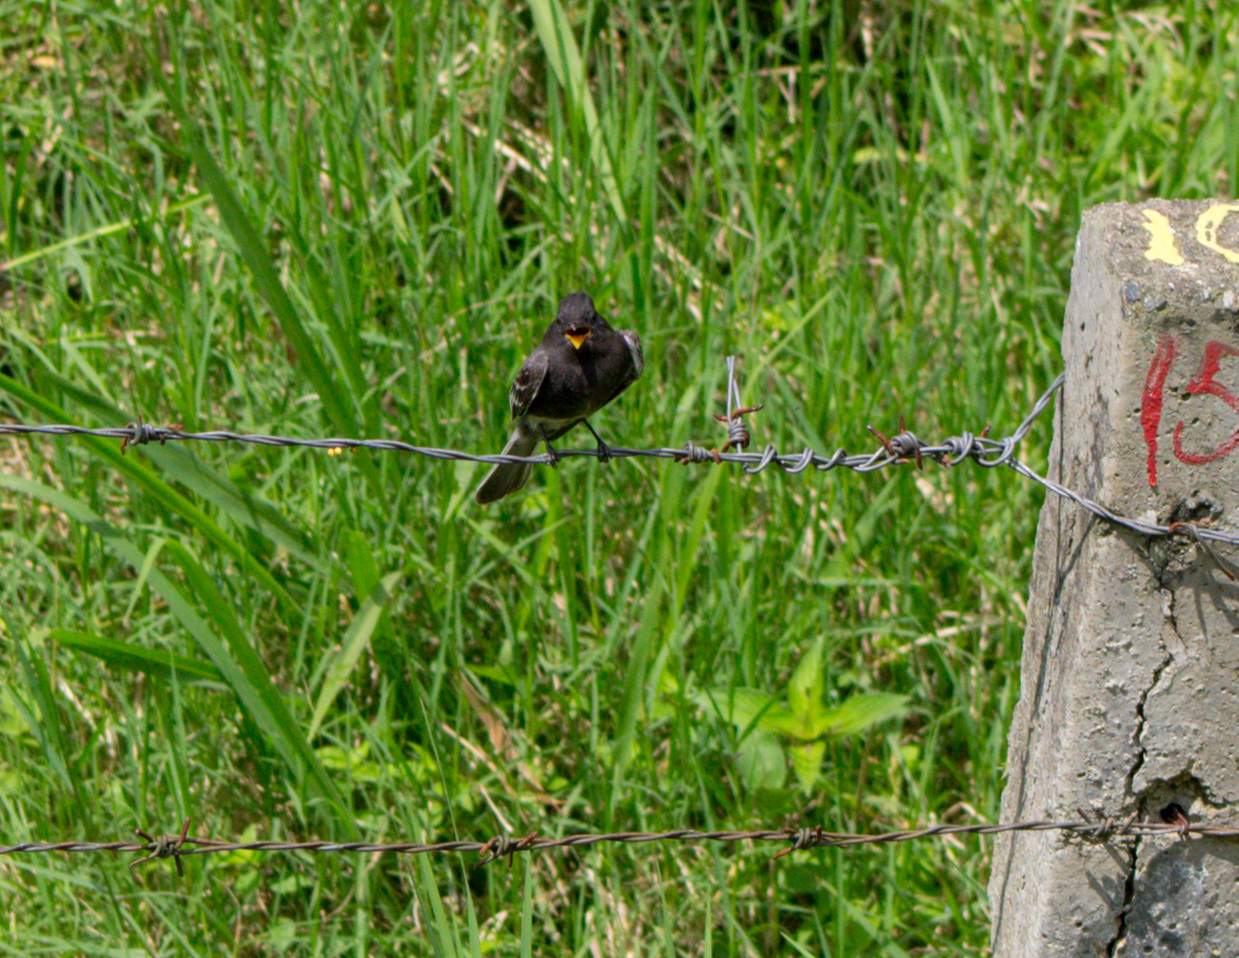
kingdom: Animalia
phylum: Chordata
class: Aves
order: Passeriformes
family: Tyrannidae
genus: Sayornis
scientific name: Sayornis nigricans
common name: Black phoebe
